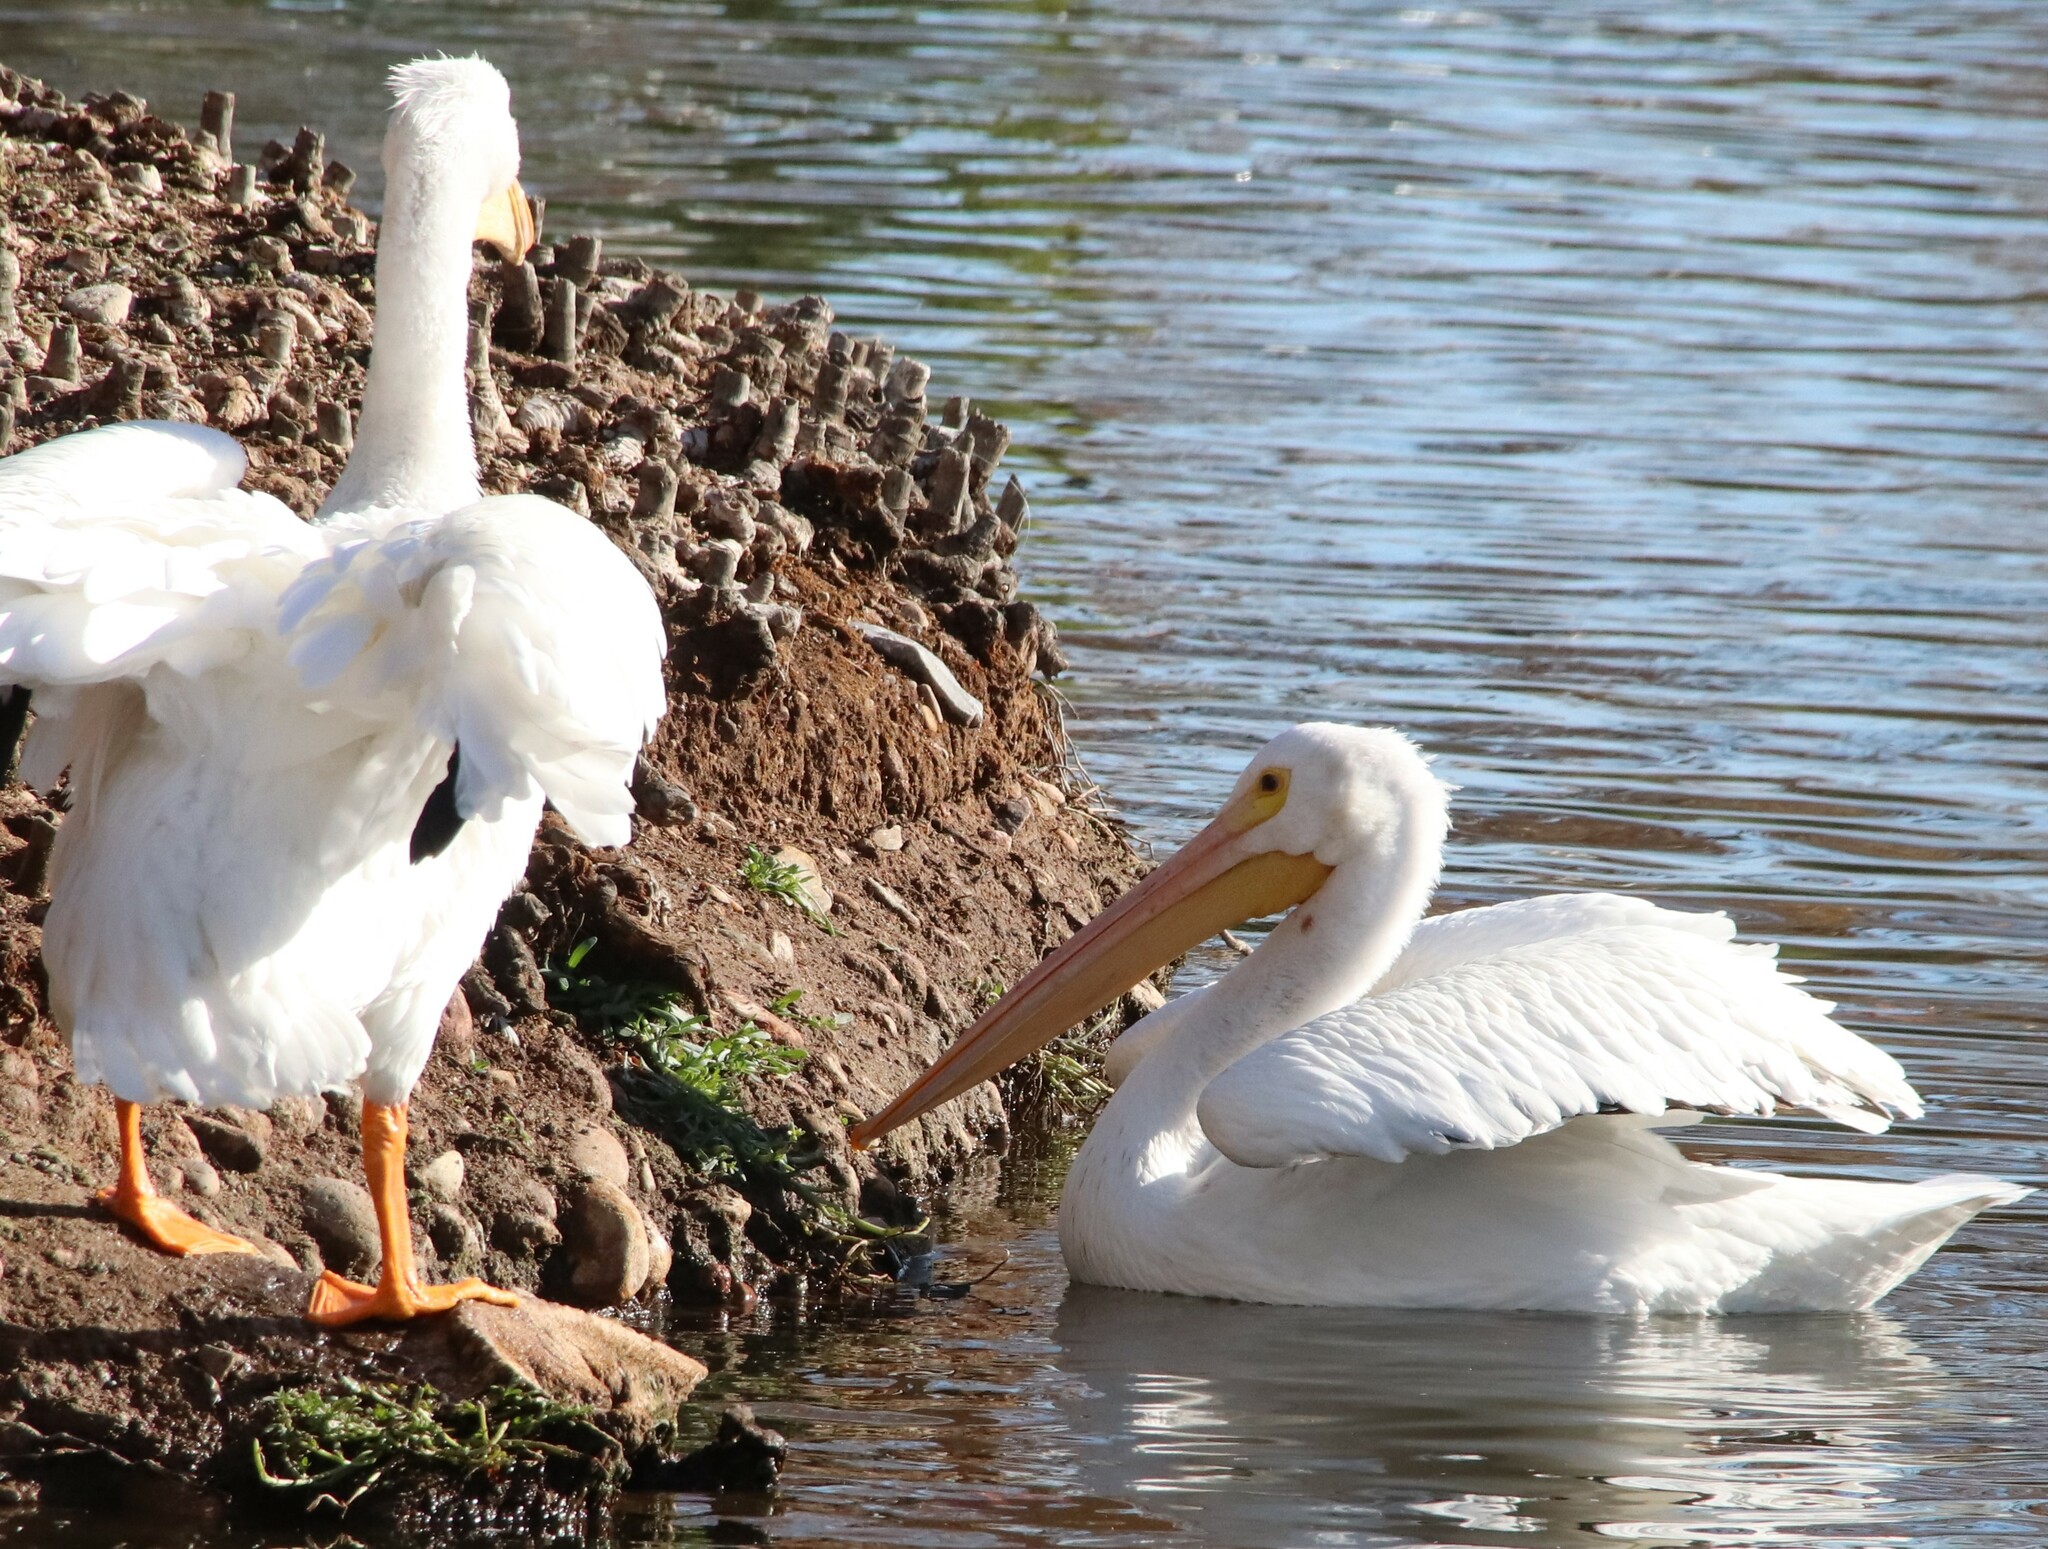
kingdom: Animalia
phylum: Chordata
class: Aves
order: Pelecaniformes
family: Pelecanidae
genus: Pelecanus
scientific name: Pelecanus erythrorhynchos
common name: American white pelican
